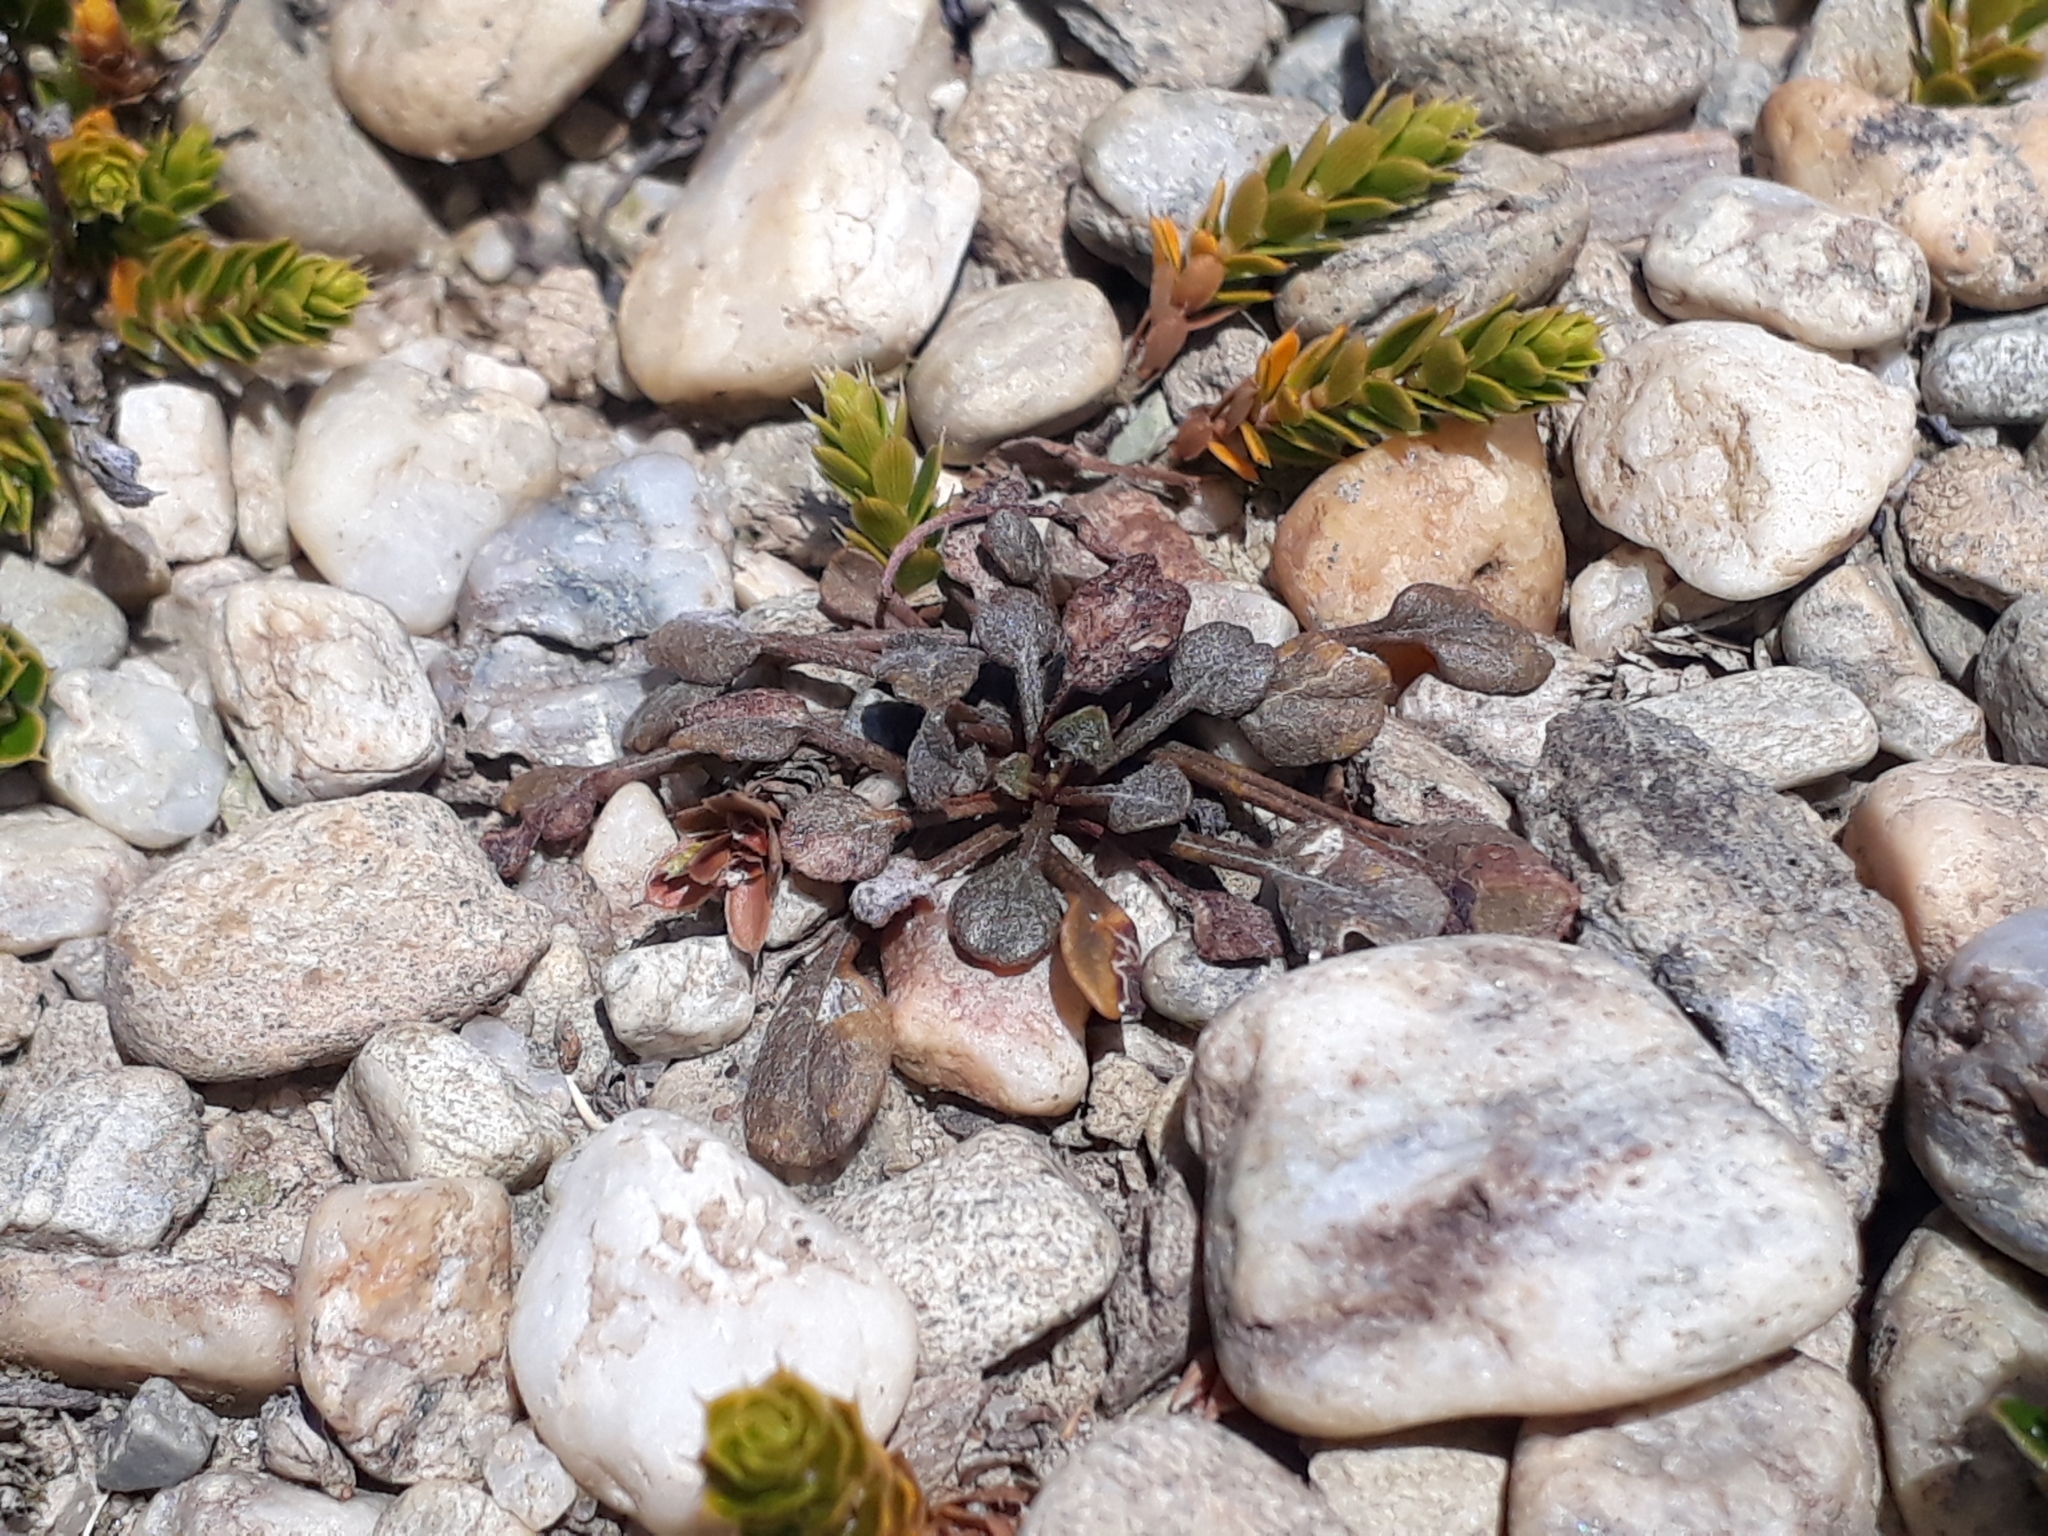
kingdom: Plantae
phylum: Tracheophyta
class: Magnoliopsida
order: Solanales
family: Convolvulaceae
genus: Convolvulus
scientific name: Convolvulus verecundus
